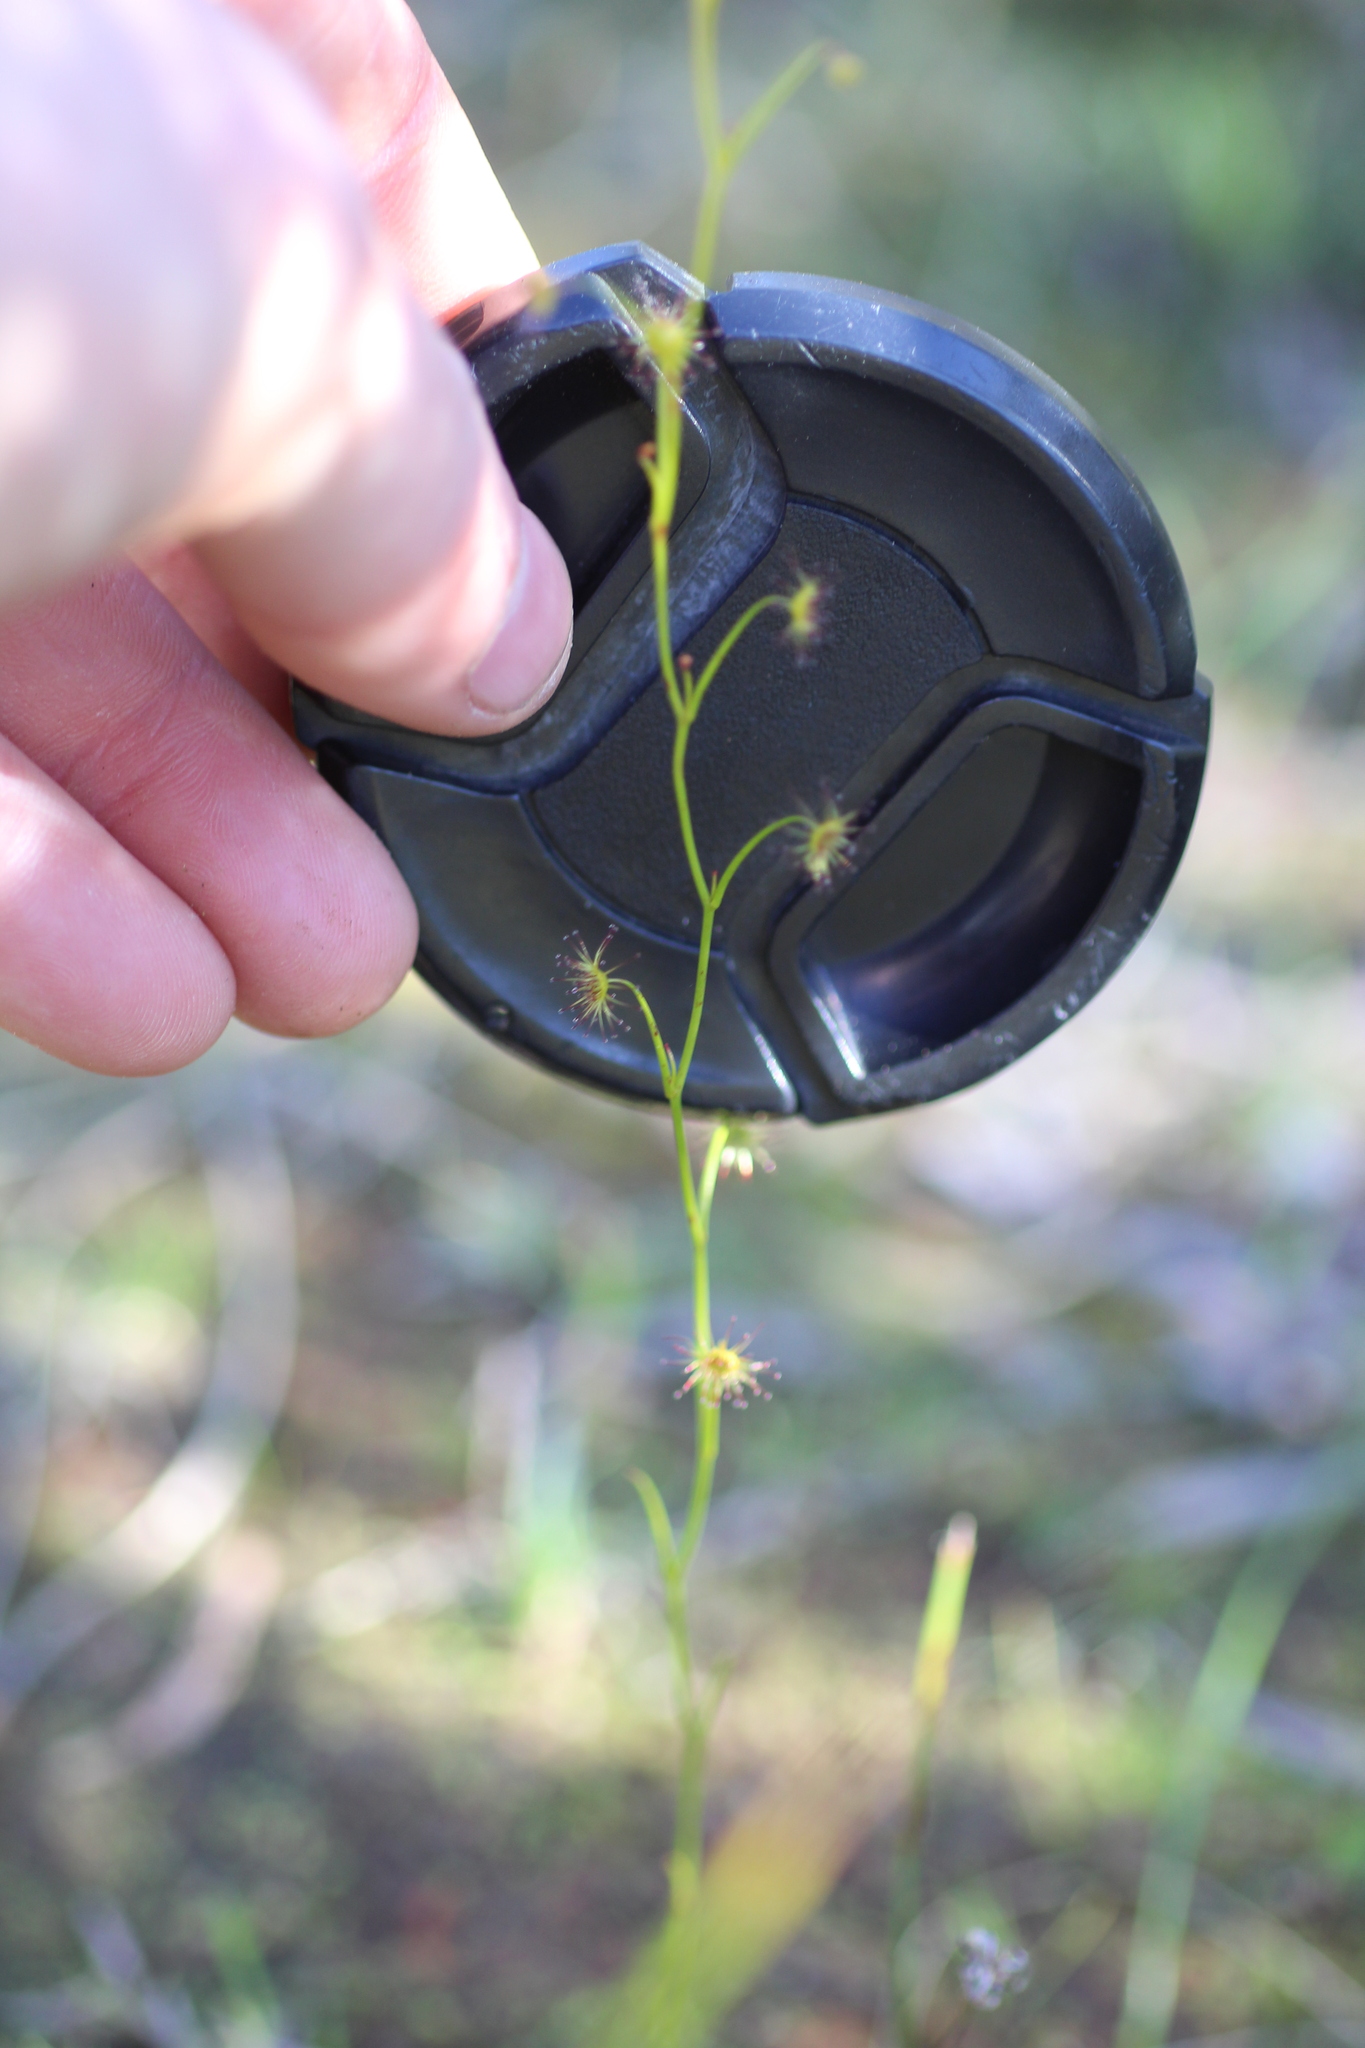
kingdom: Plantae
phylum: Tracheophyta
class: Magnoliopsida
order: Caryophyllales
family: Droseraceae
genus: Drosera
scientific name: Drosera
